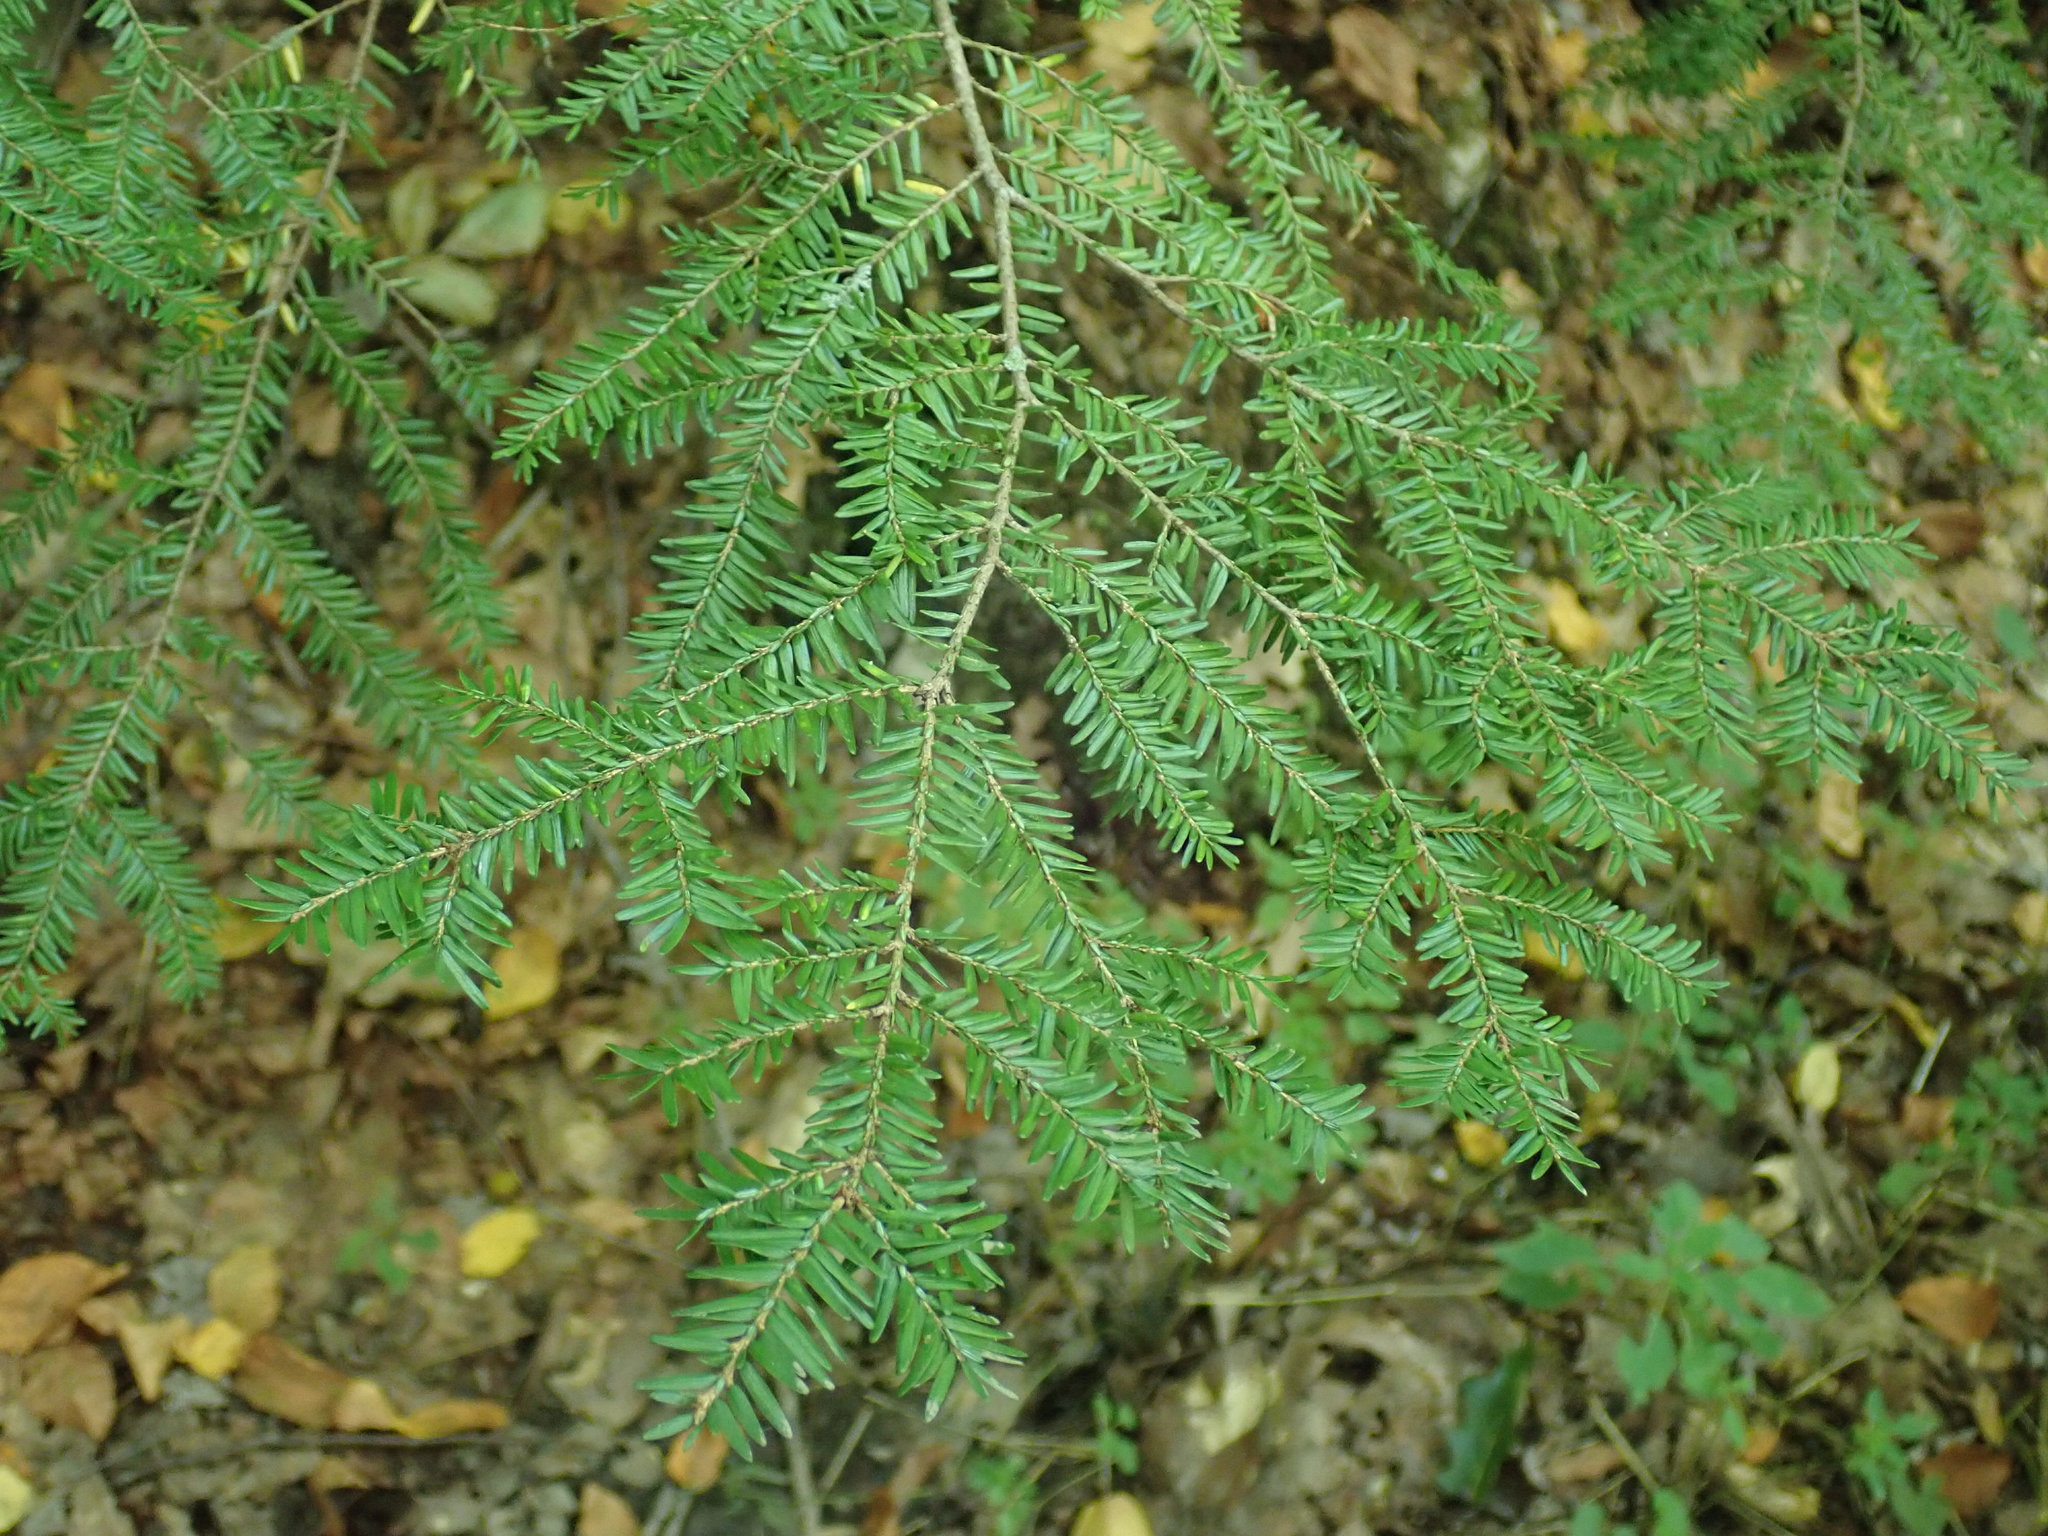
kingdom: Plantae
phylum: Tracheophyta
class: Pinopsida
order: Pinales
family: Pinaceae
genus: Tsuga
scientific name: Tsuga canadensis
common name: Eastern hemlock
